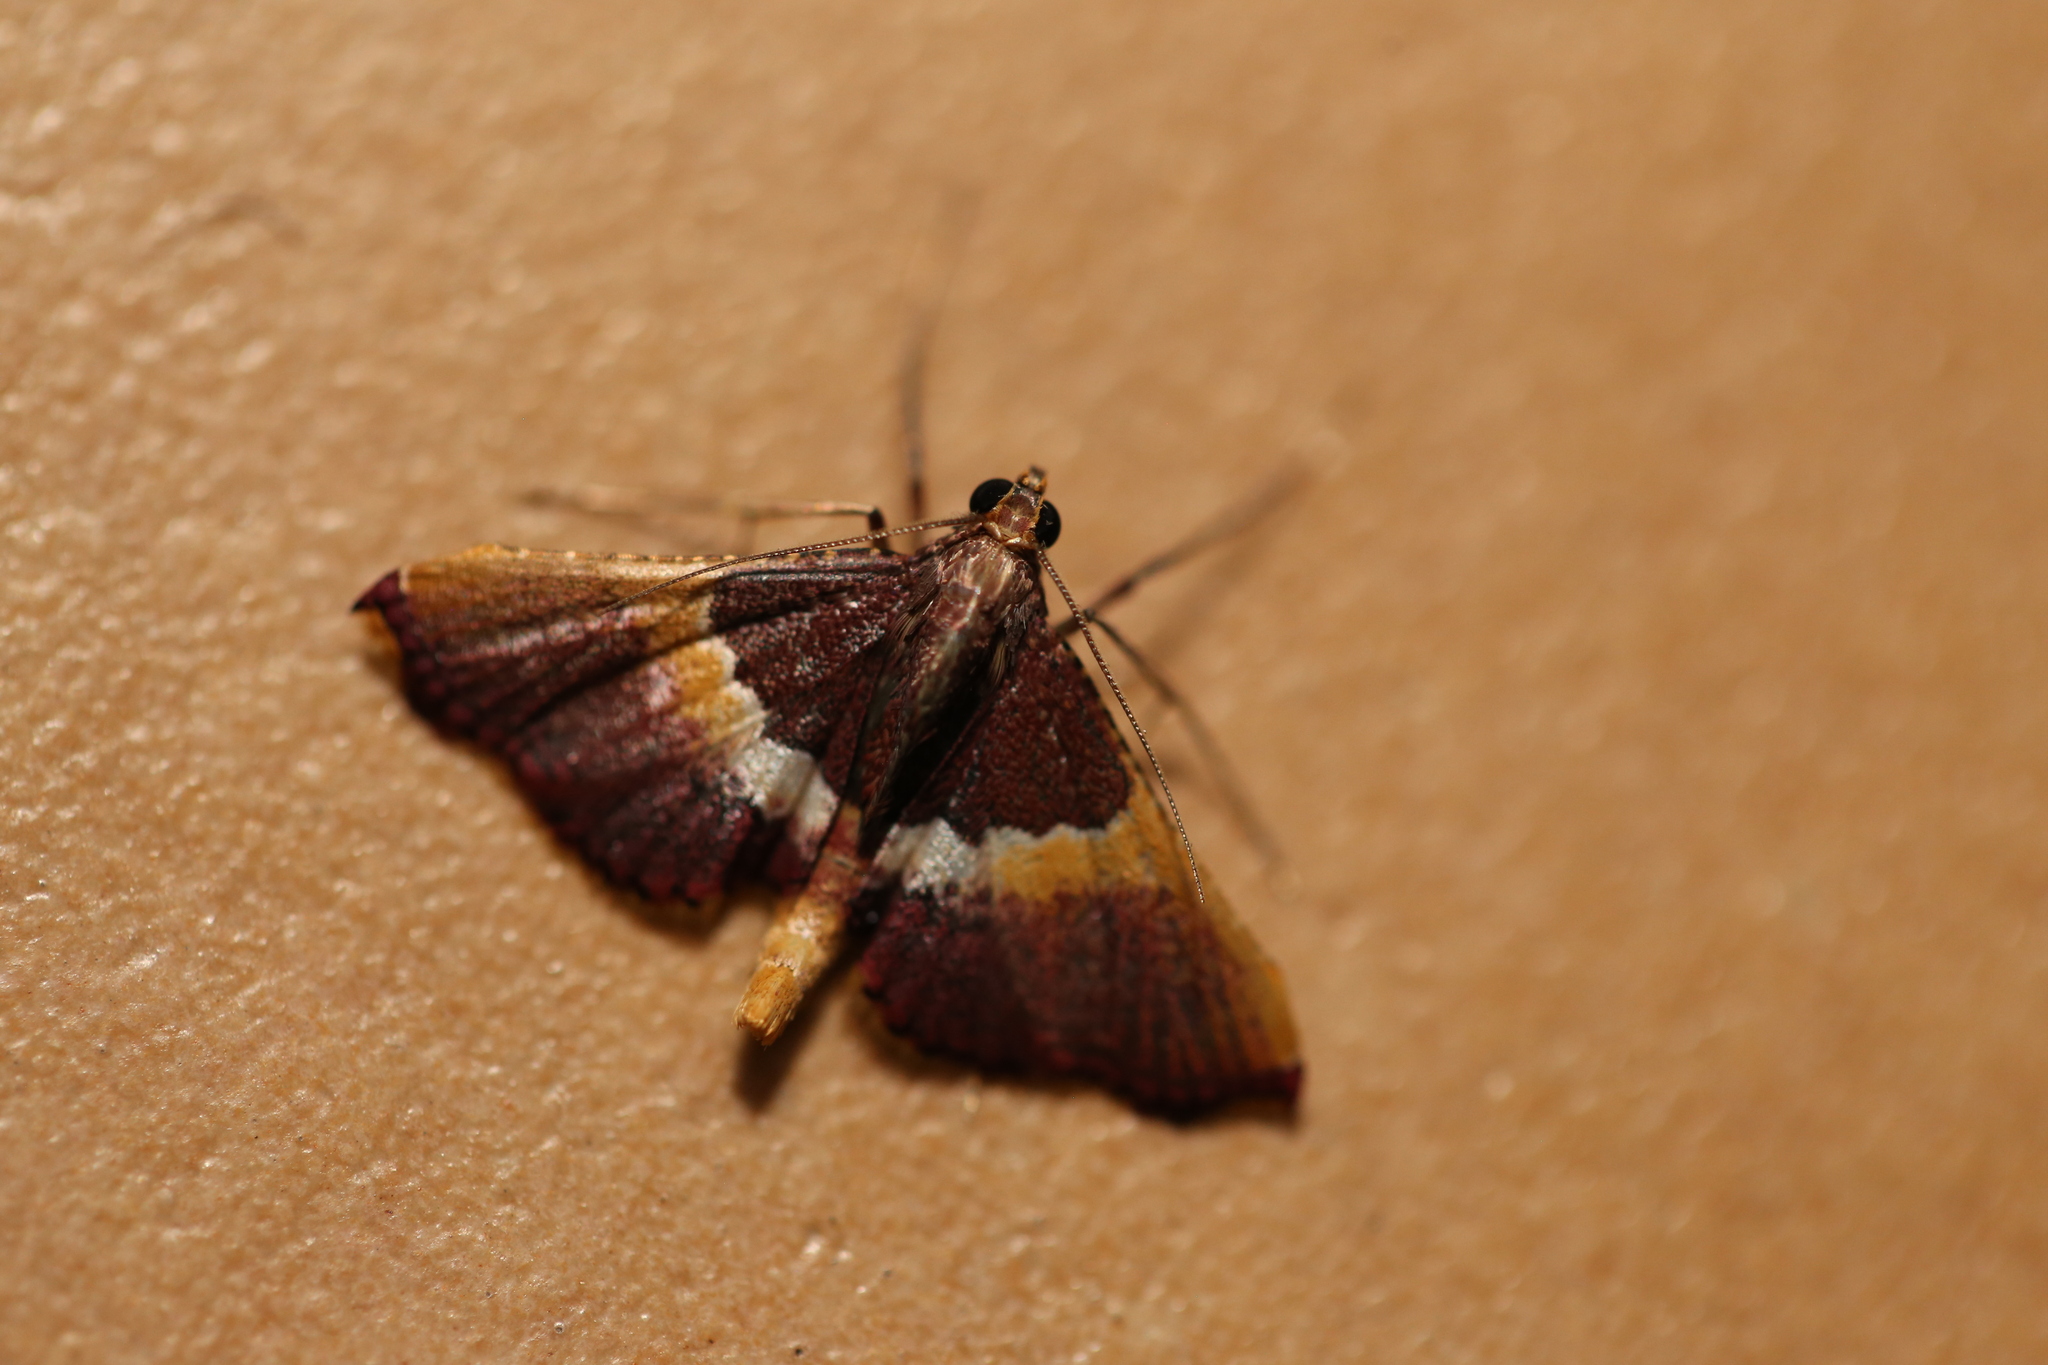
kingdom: Animalia
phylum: Arthropoda
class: Insecta
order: Lepidoptera
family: Pyralidae
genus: Endotricha
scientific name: Endotricha mesenterialis
